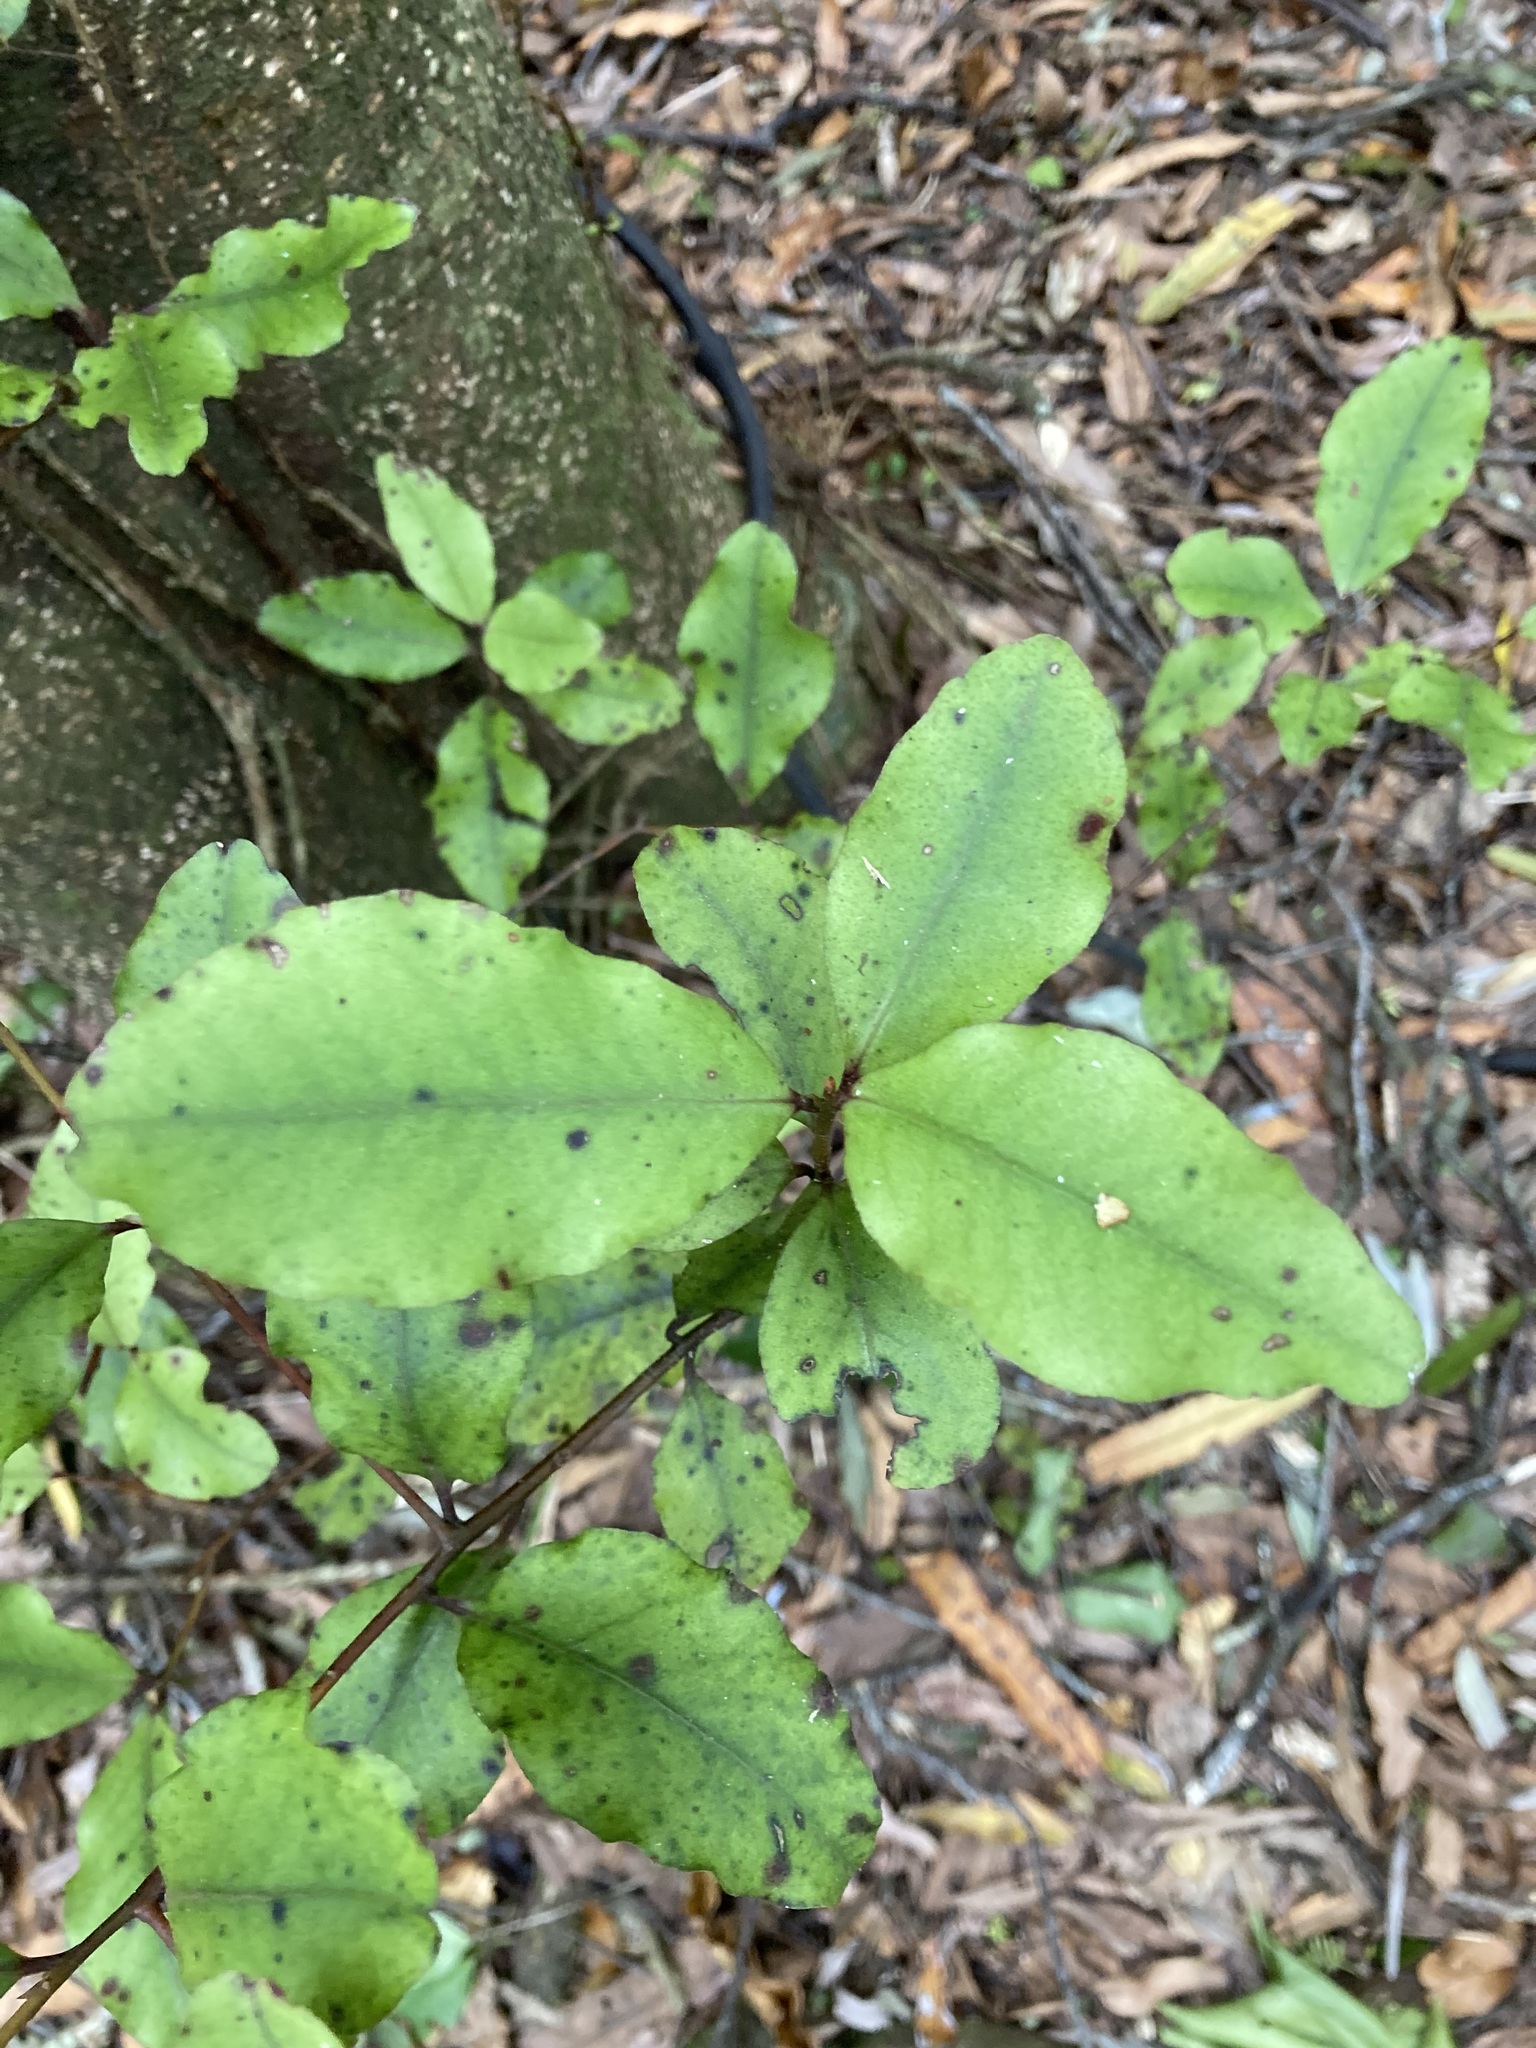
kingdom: Plantae
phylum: Tracheophyta
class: Magnoliopsida
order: Ericales
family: Primulaceae
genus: Myrsine
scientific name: Myrsine australis
